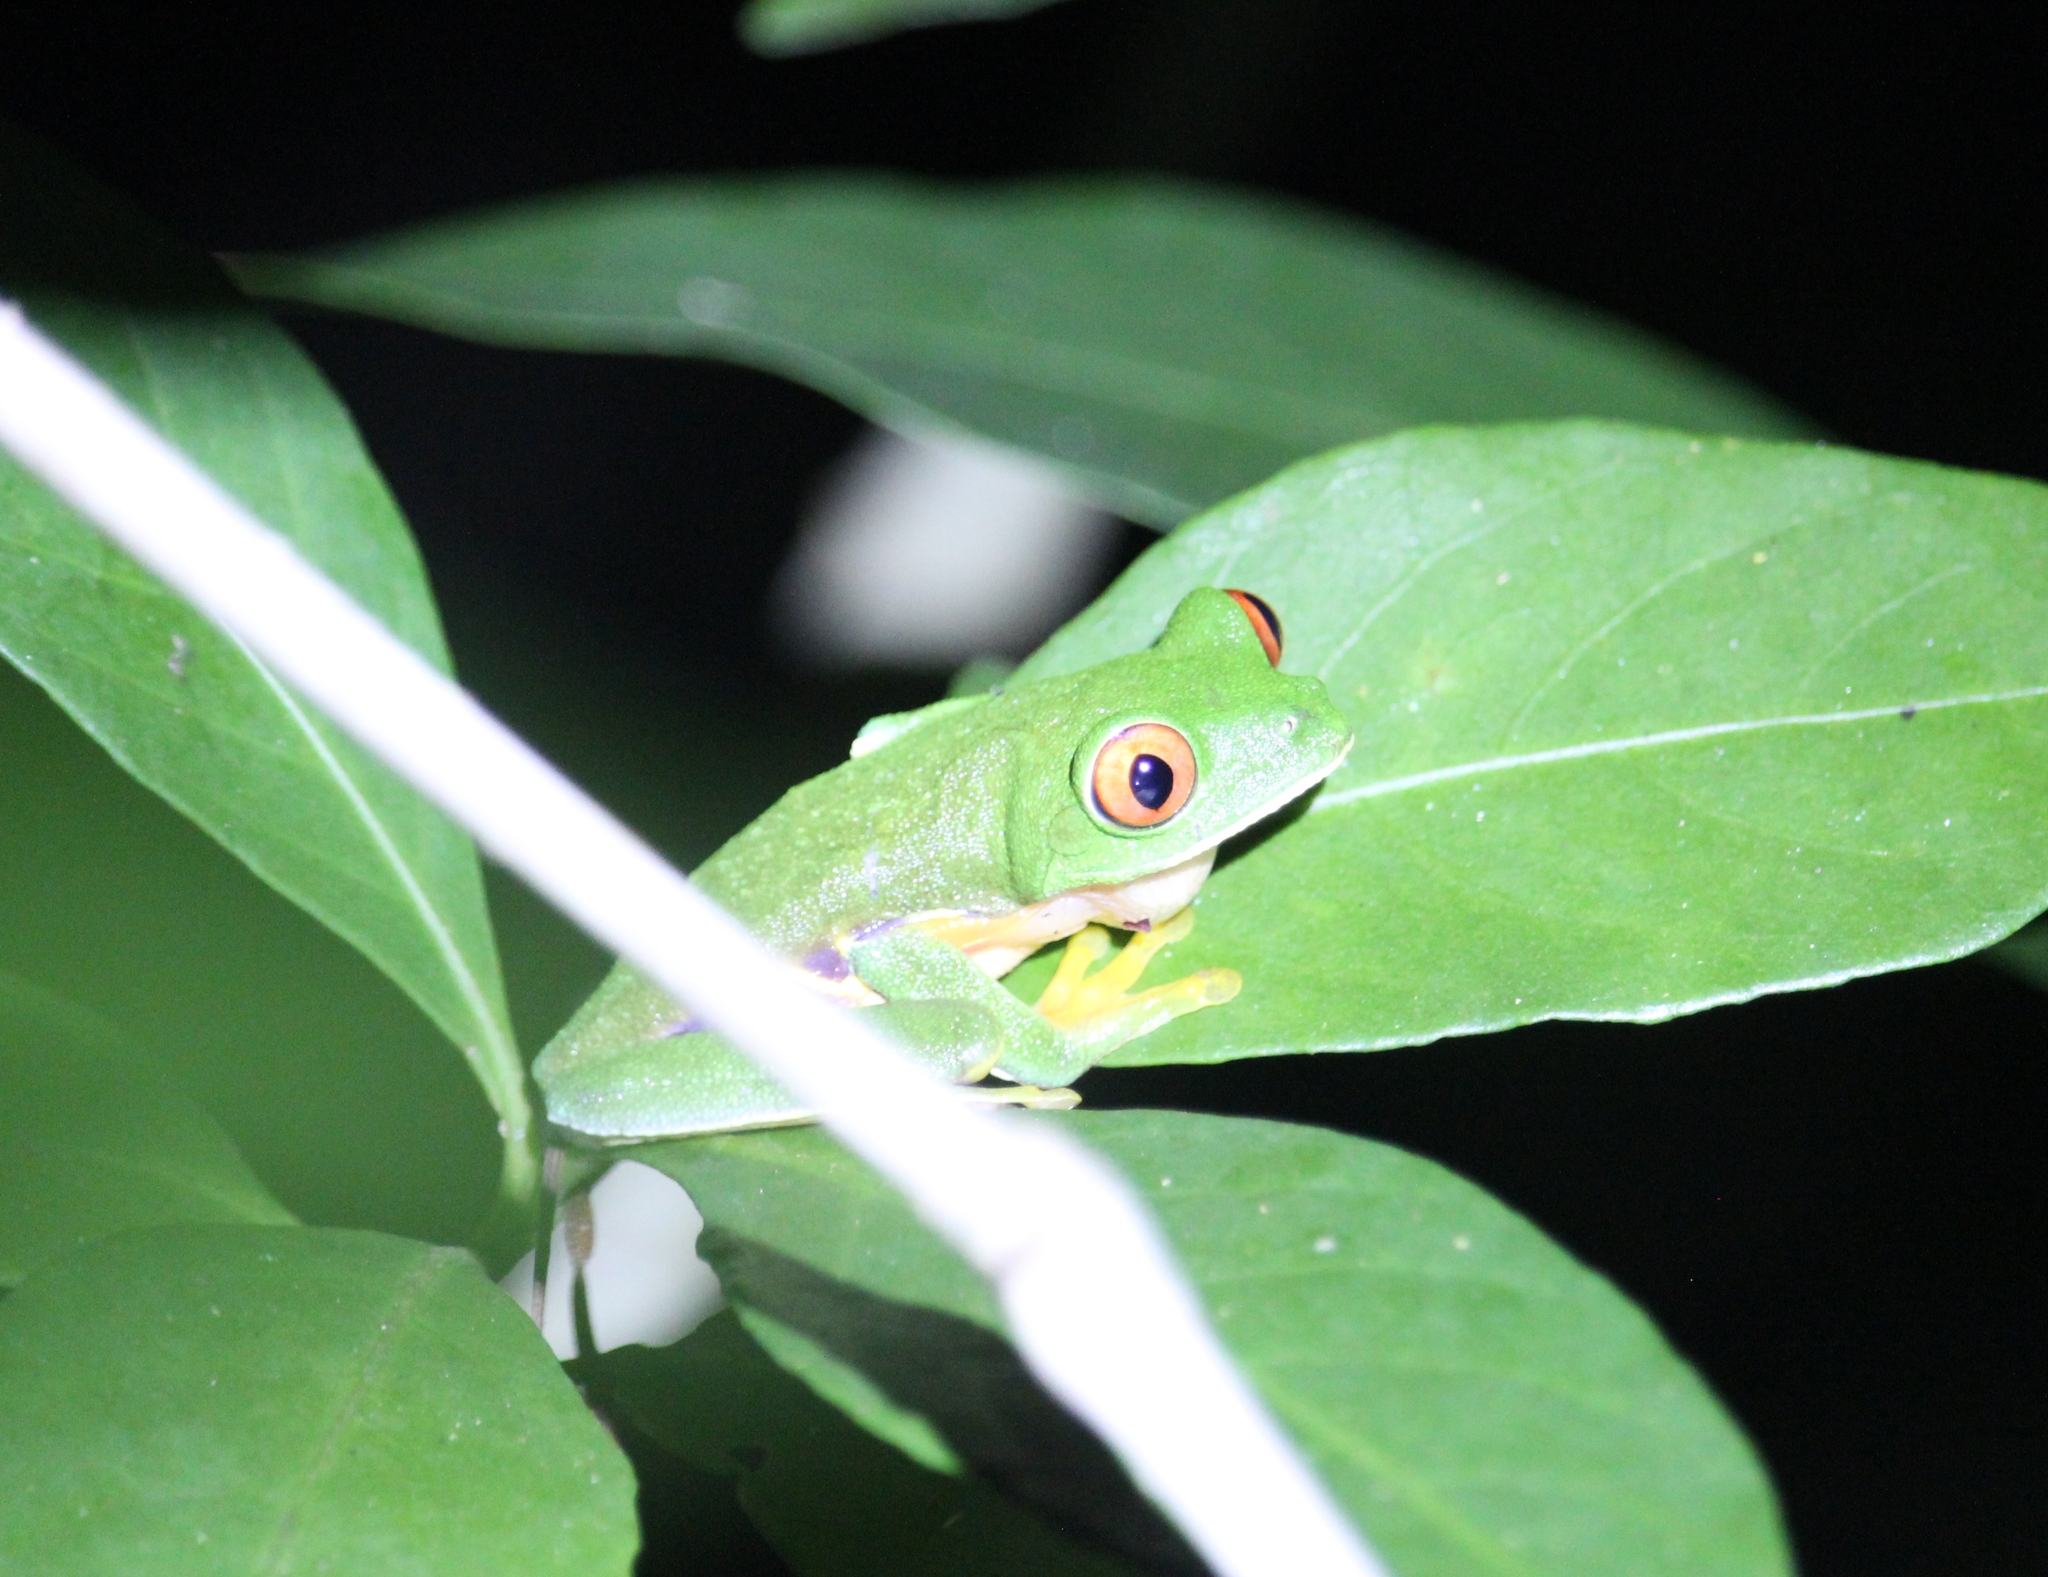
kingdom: Animalia
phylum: Chordata
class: Amphibia
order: Anura
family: Phyllomedusidae
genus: Agalychnis
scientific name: Agalychnis
